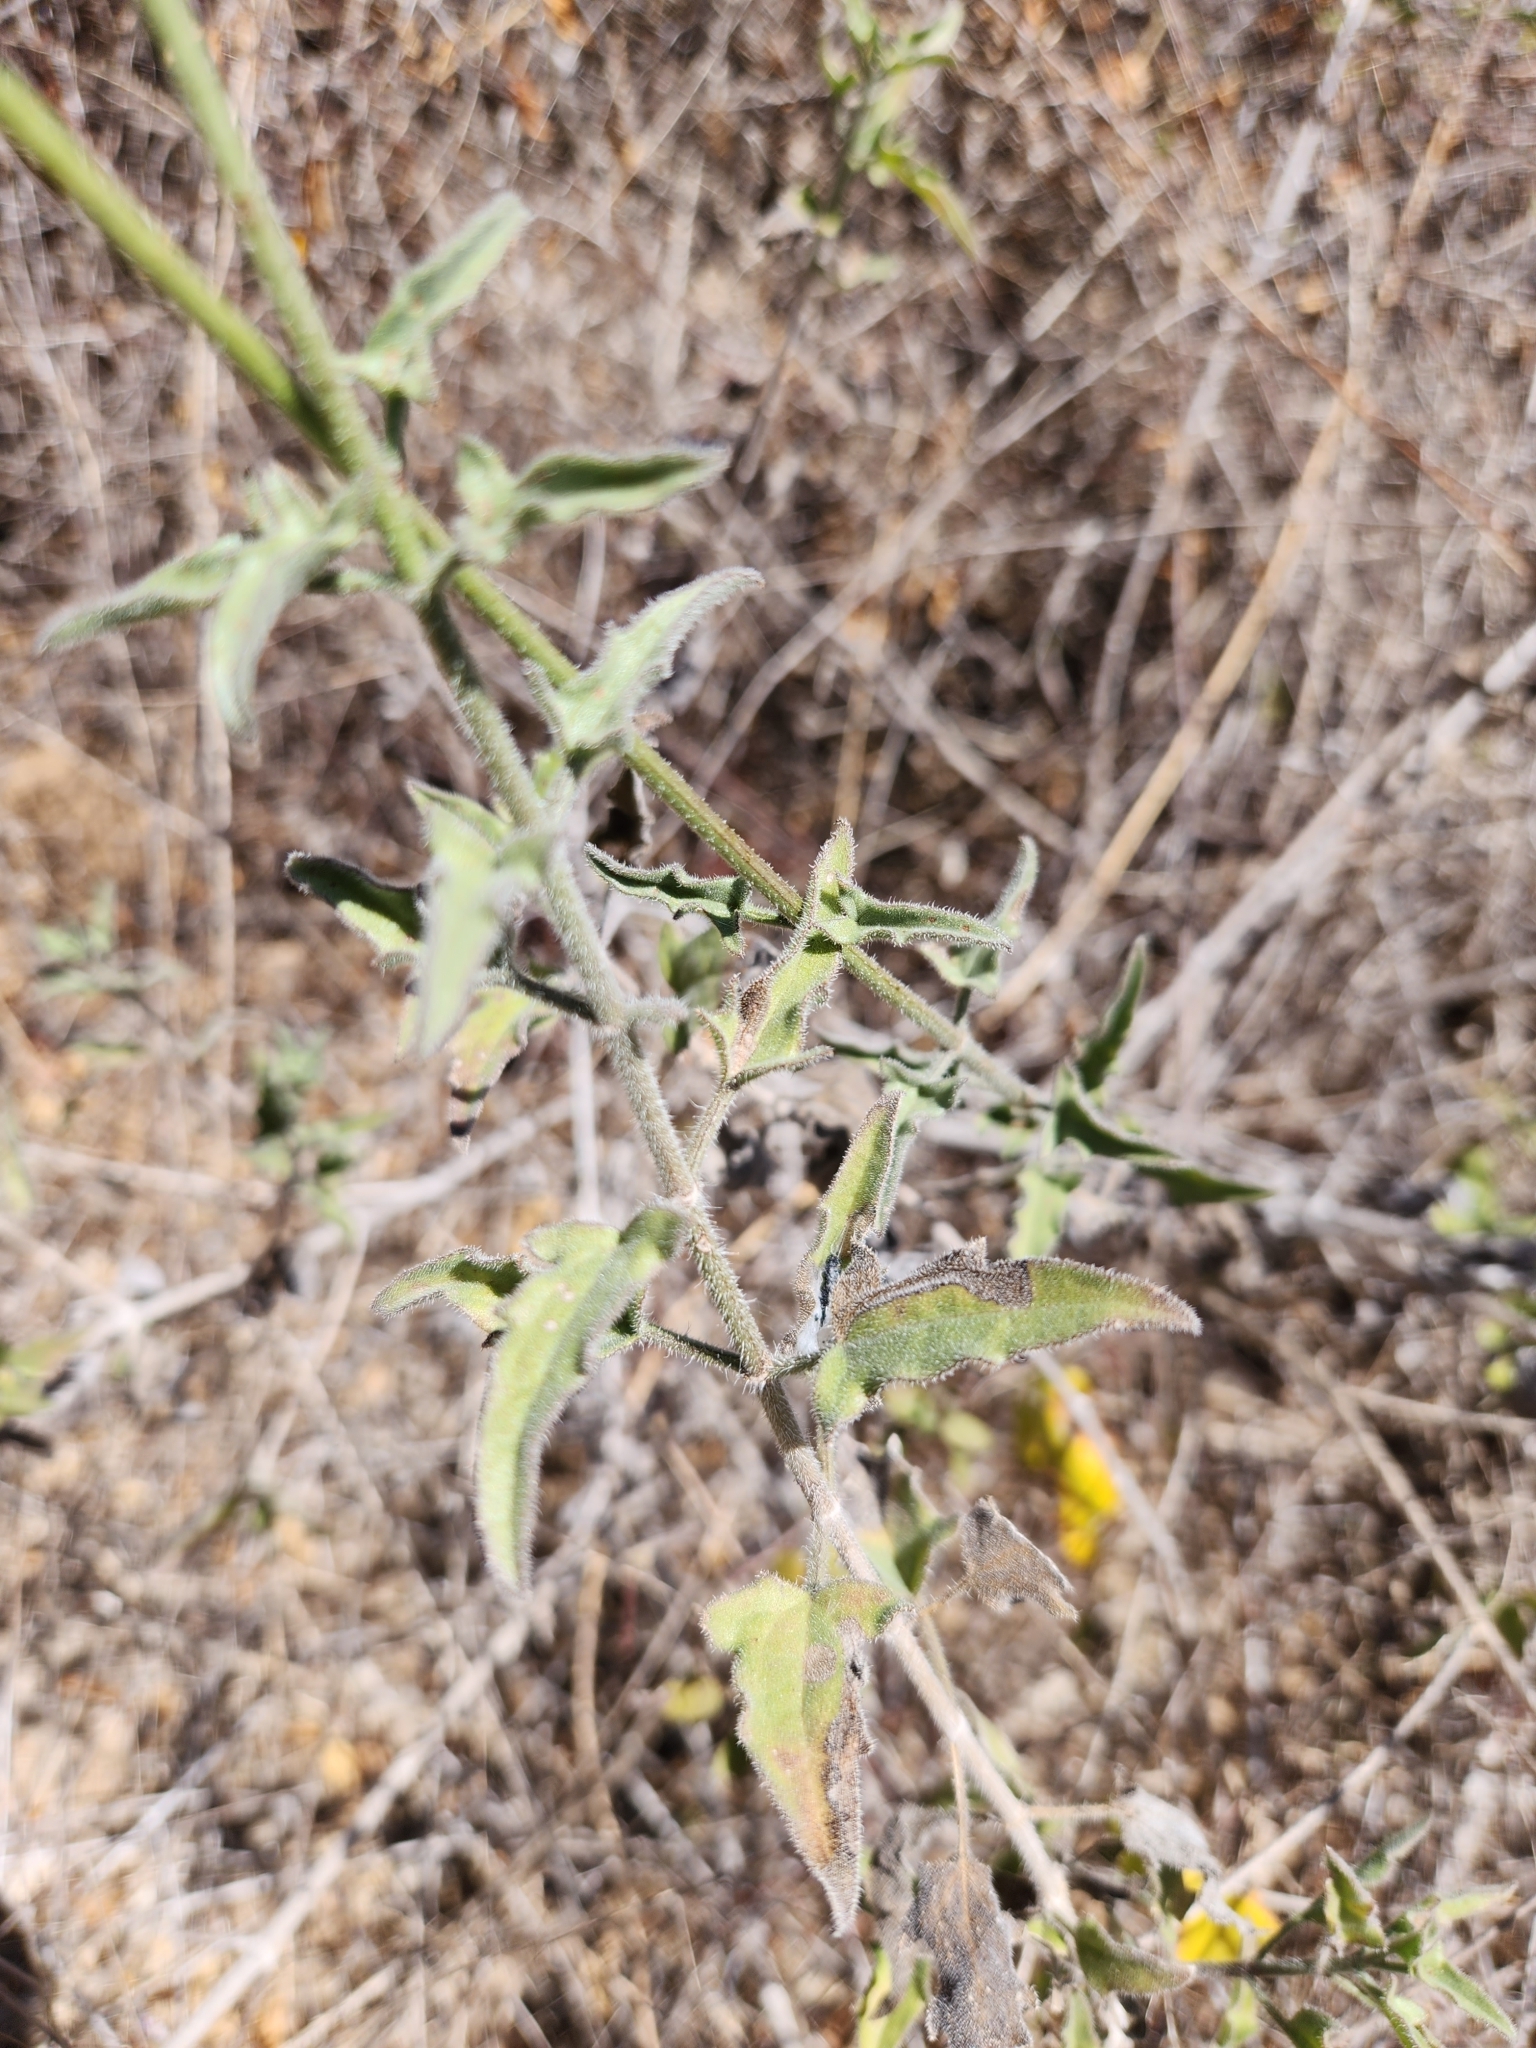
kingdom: Plantae
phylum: Tracheophyta
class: Magnoliopsida
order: Asterales
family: Asteraceae
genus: Bebbia
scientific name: Bebbia atriplicifolia
